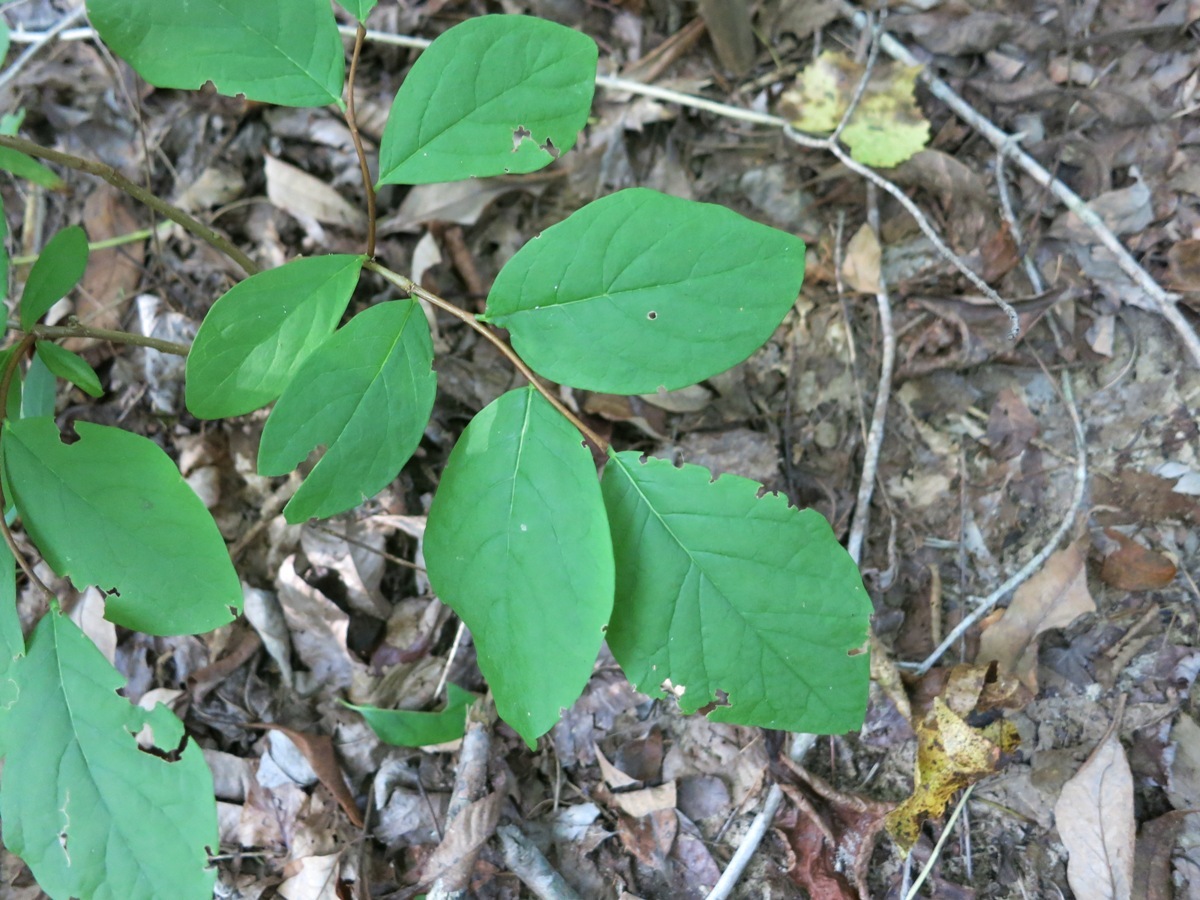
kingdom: Plantae
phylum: Tracheophyta
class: Magnoliopsida
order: Malvales
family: Thymelaeaceae
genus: Dirca
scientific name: Dirca palustris
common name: Leatherwood
